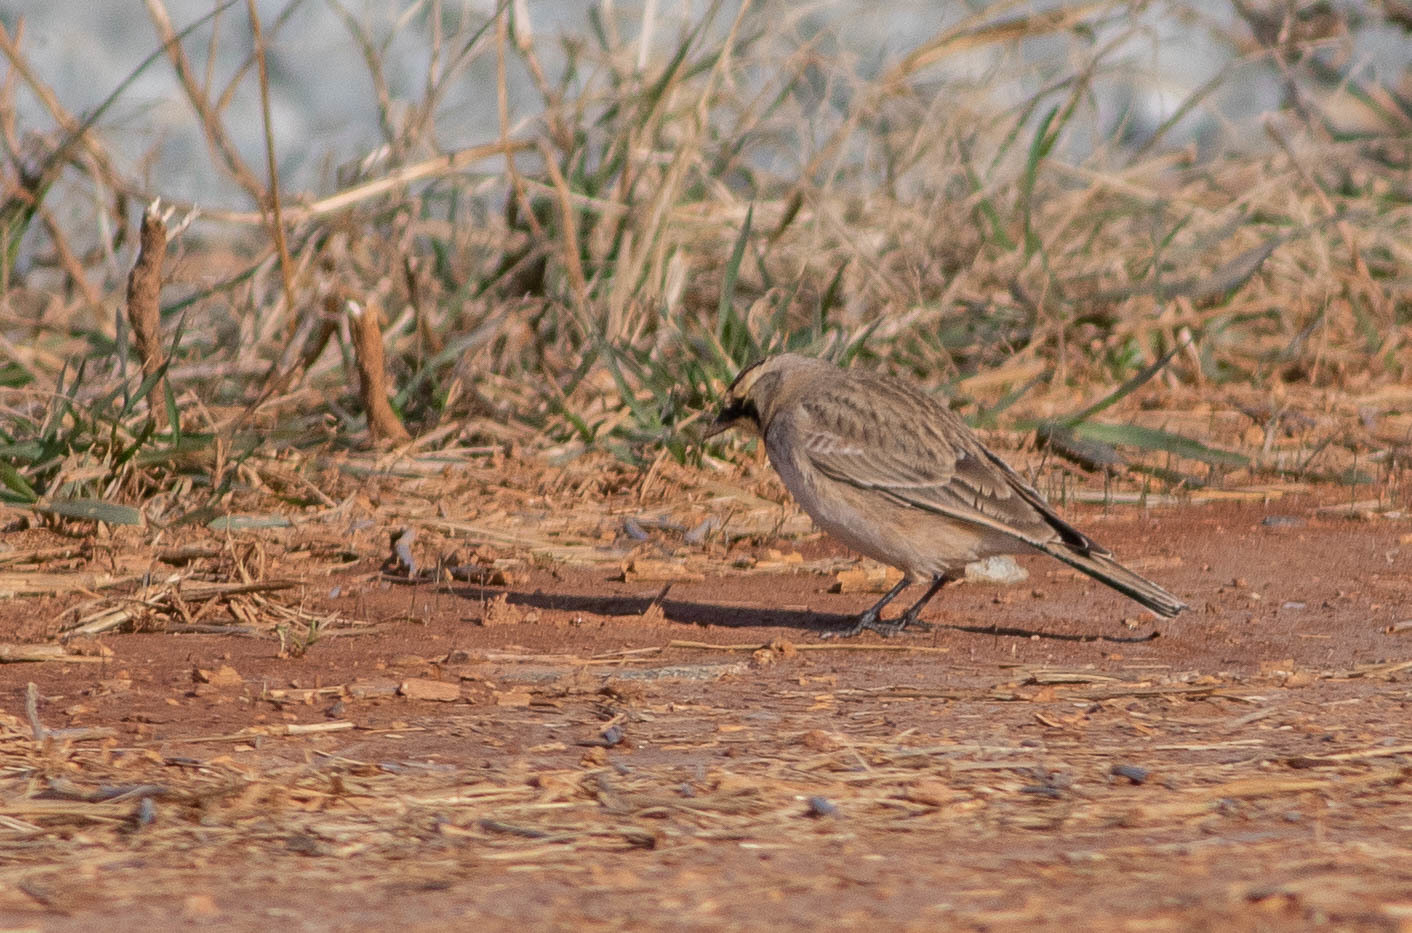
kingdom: Animalia
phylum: Chordata
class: Aves
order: Passeriformes
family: Alaudidae
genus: Eremophila
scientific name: Eremophila alpestris
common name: Horned lark
